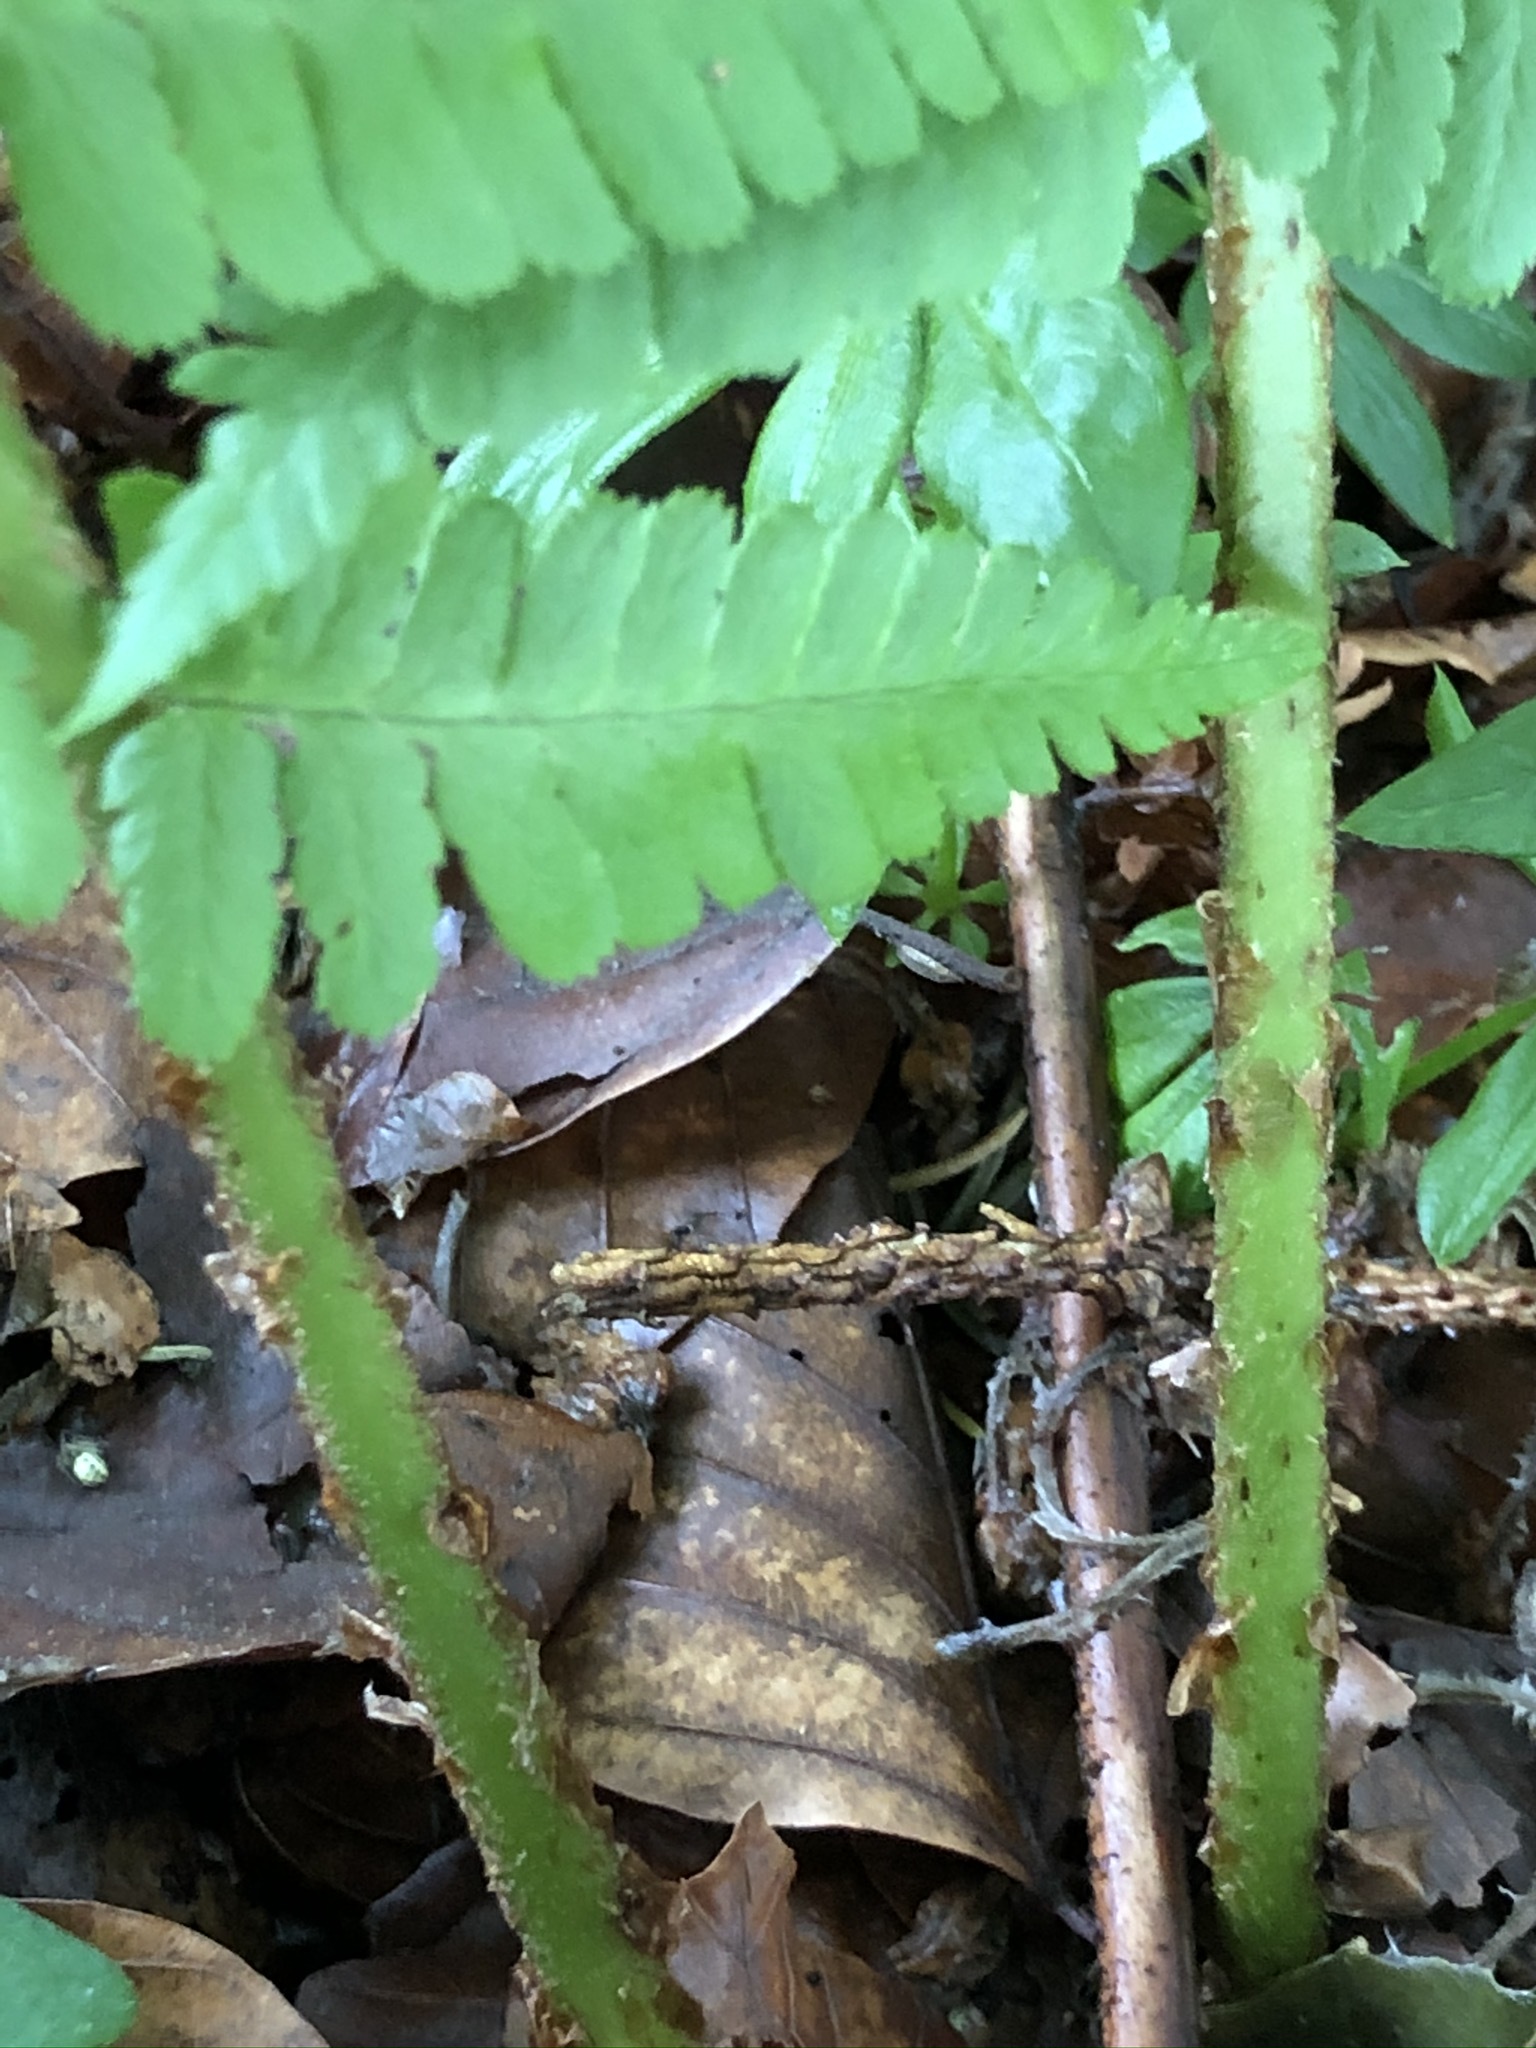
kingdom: Plantae
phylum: Tracheophyta
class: Polypodiopsida
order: Polypodiales
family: Dryopteridaceae
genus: Dryopteris
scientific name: Dryopteris filix-mas
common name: Male fern
